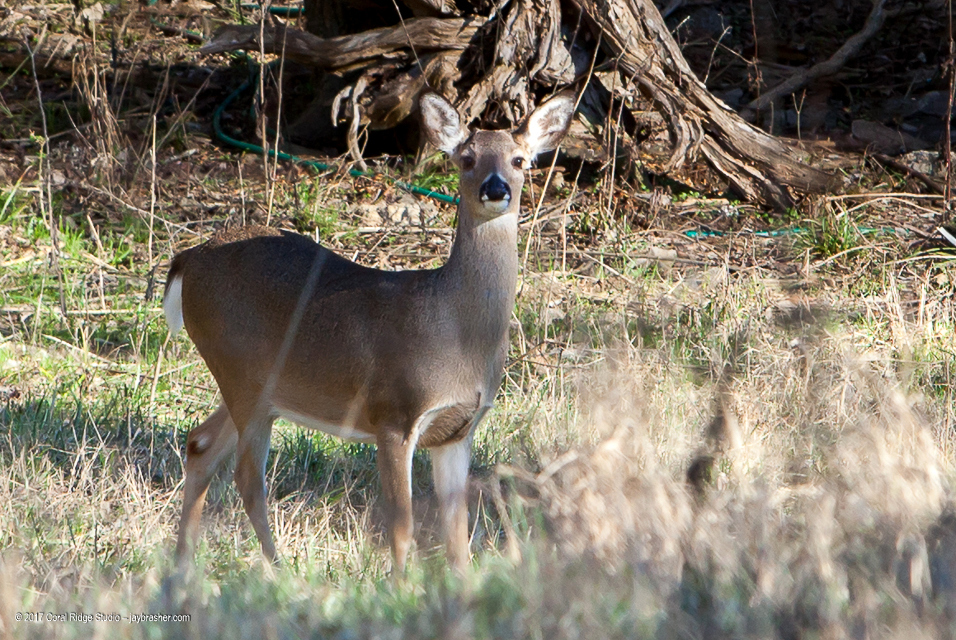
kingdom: Animalia
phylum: Chordata
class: Mammalia
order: Artiodactyla
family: Cervidae
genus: Odocoileus
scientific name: Odocoileus virginianus
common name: White-tailed deer
